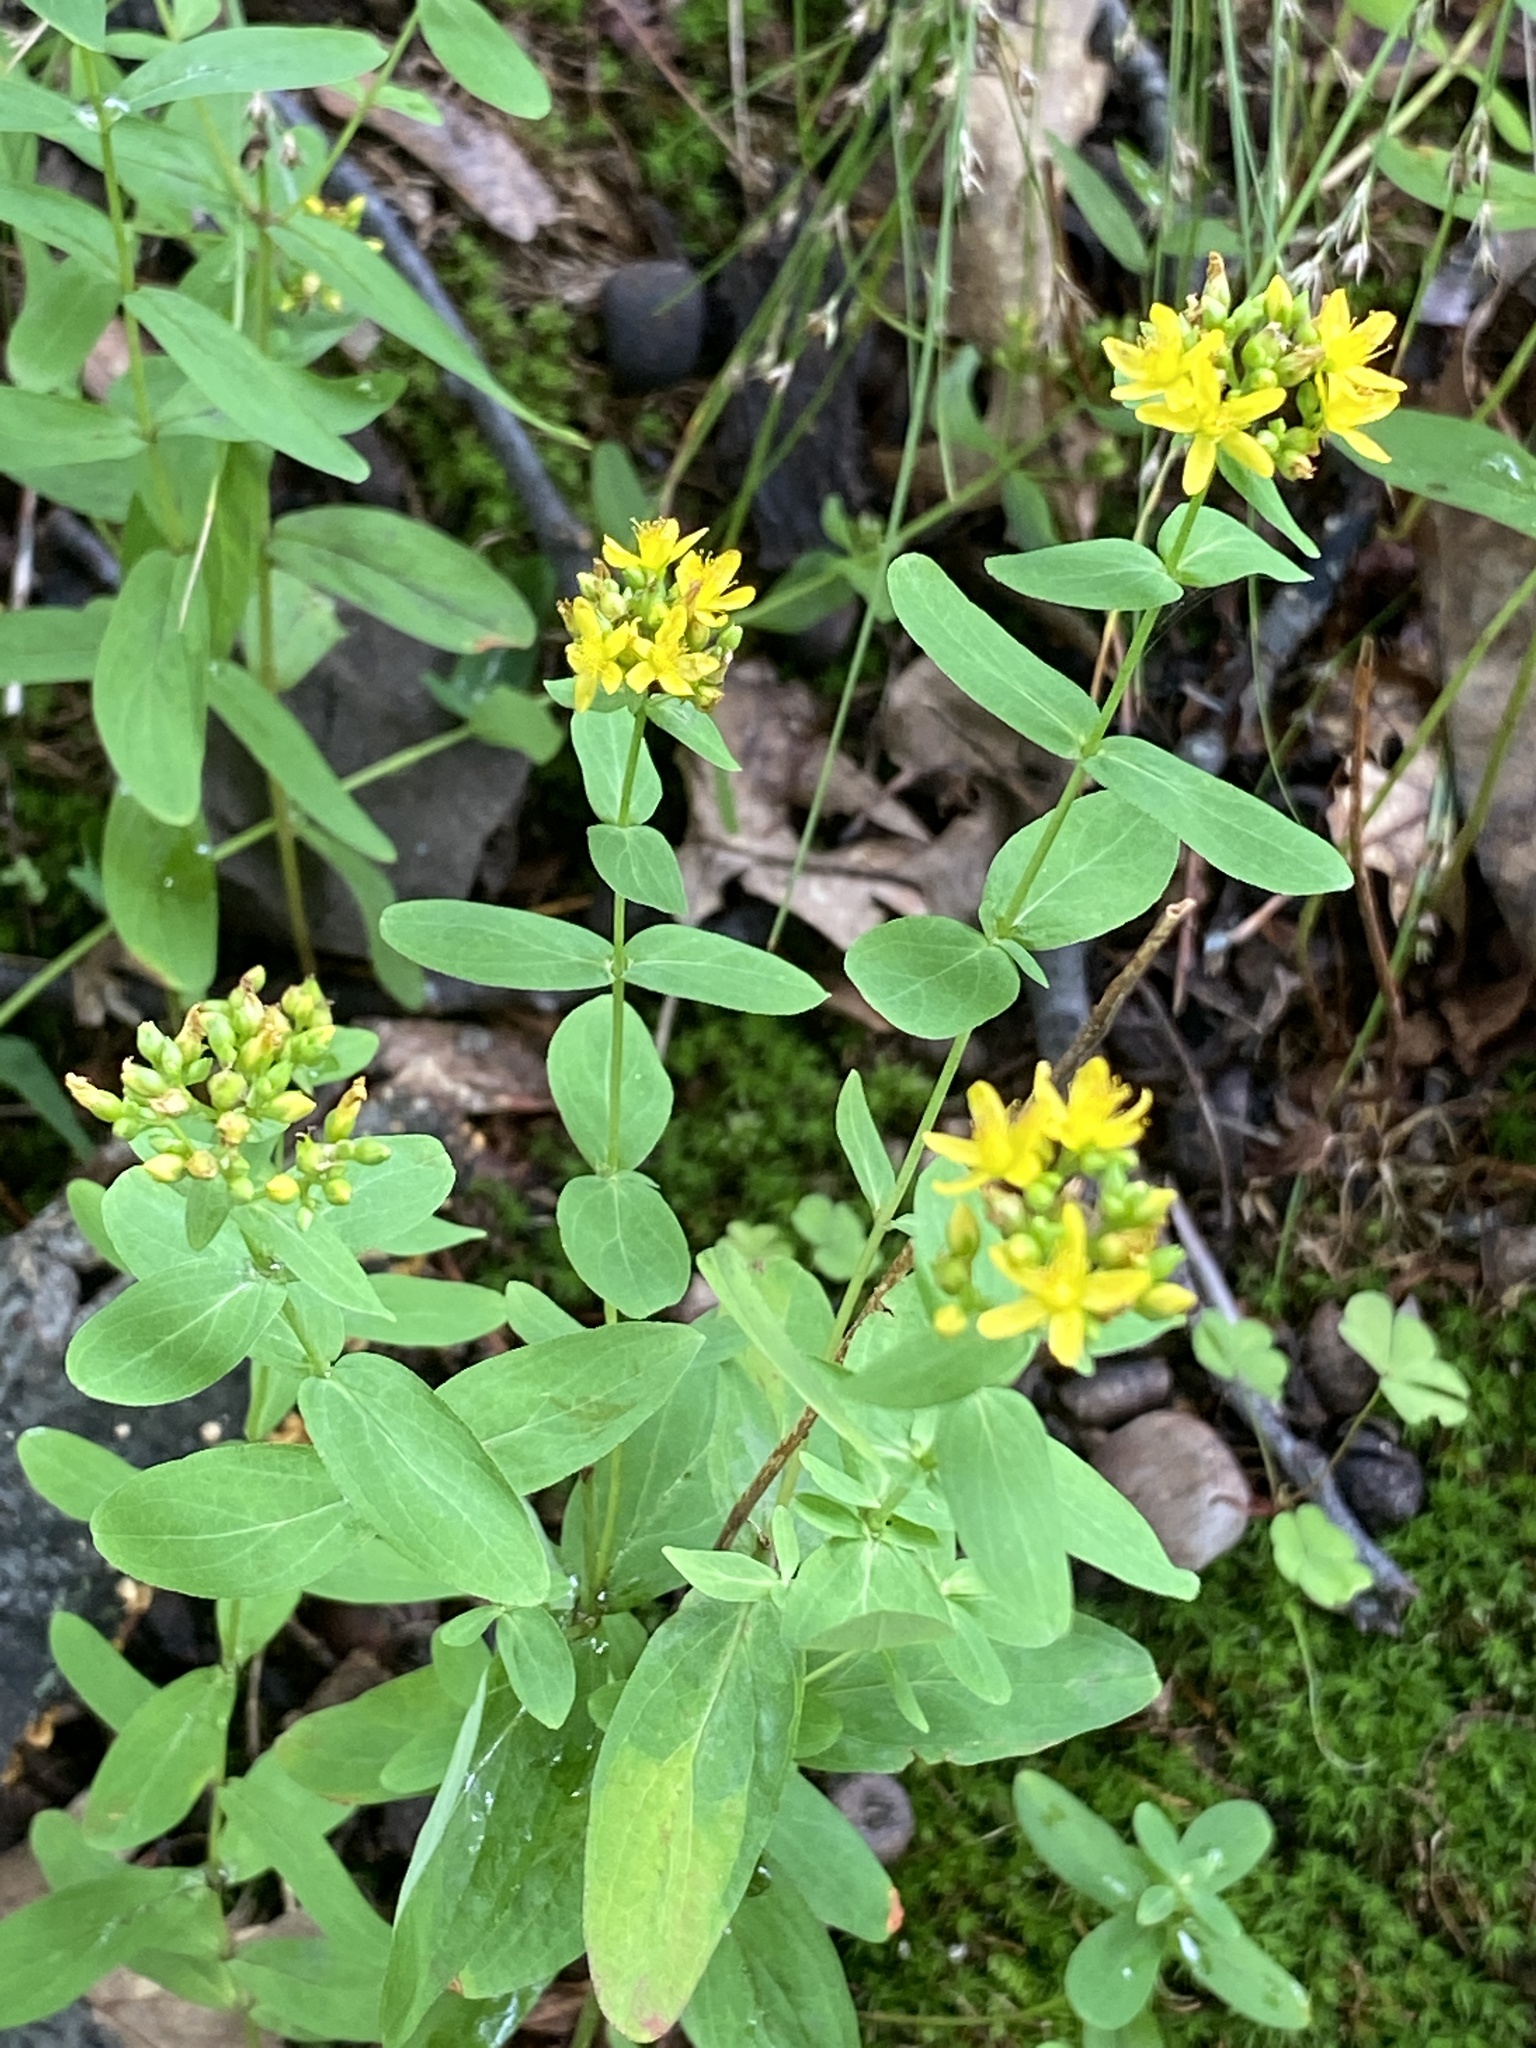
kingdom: Plantae
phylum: Tracheophyta
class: Magnoliopsida
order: Malpighiales
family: Hypericaceae
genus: Hypericum
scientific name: Hypericum punctatum
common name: Spotted st. john's-wort
